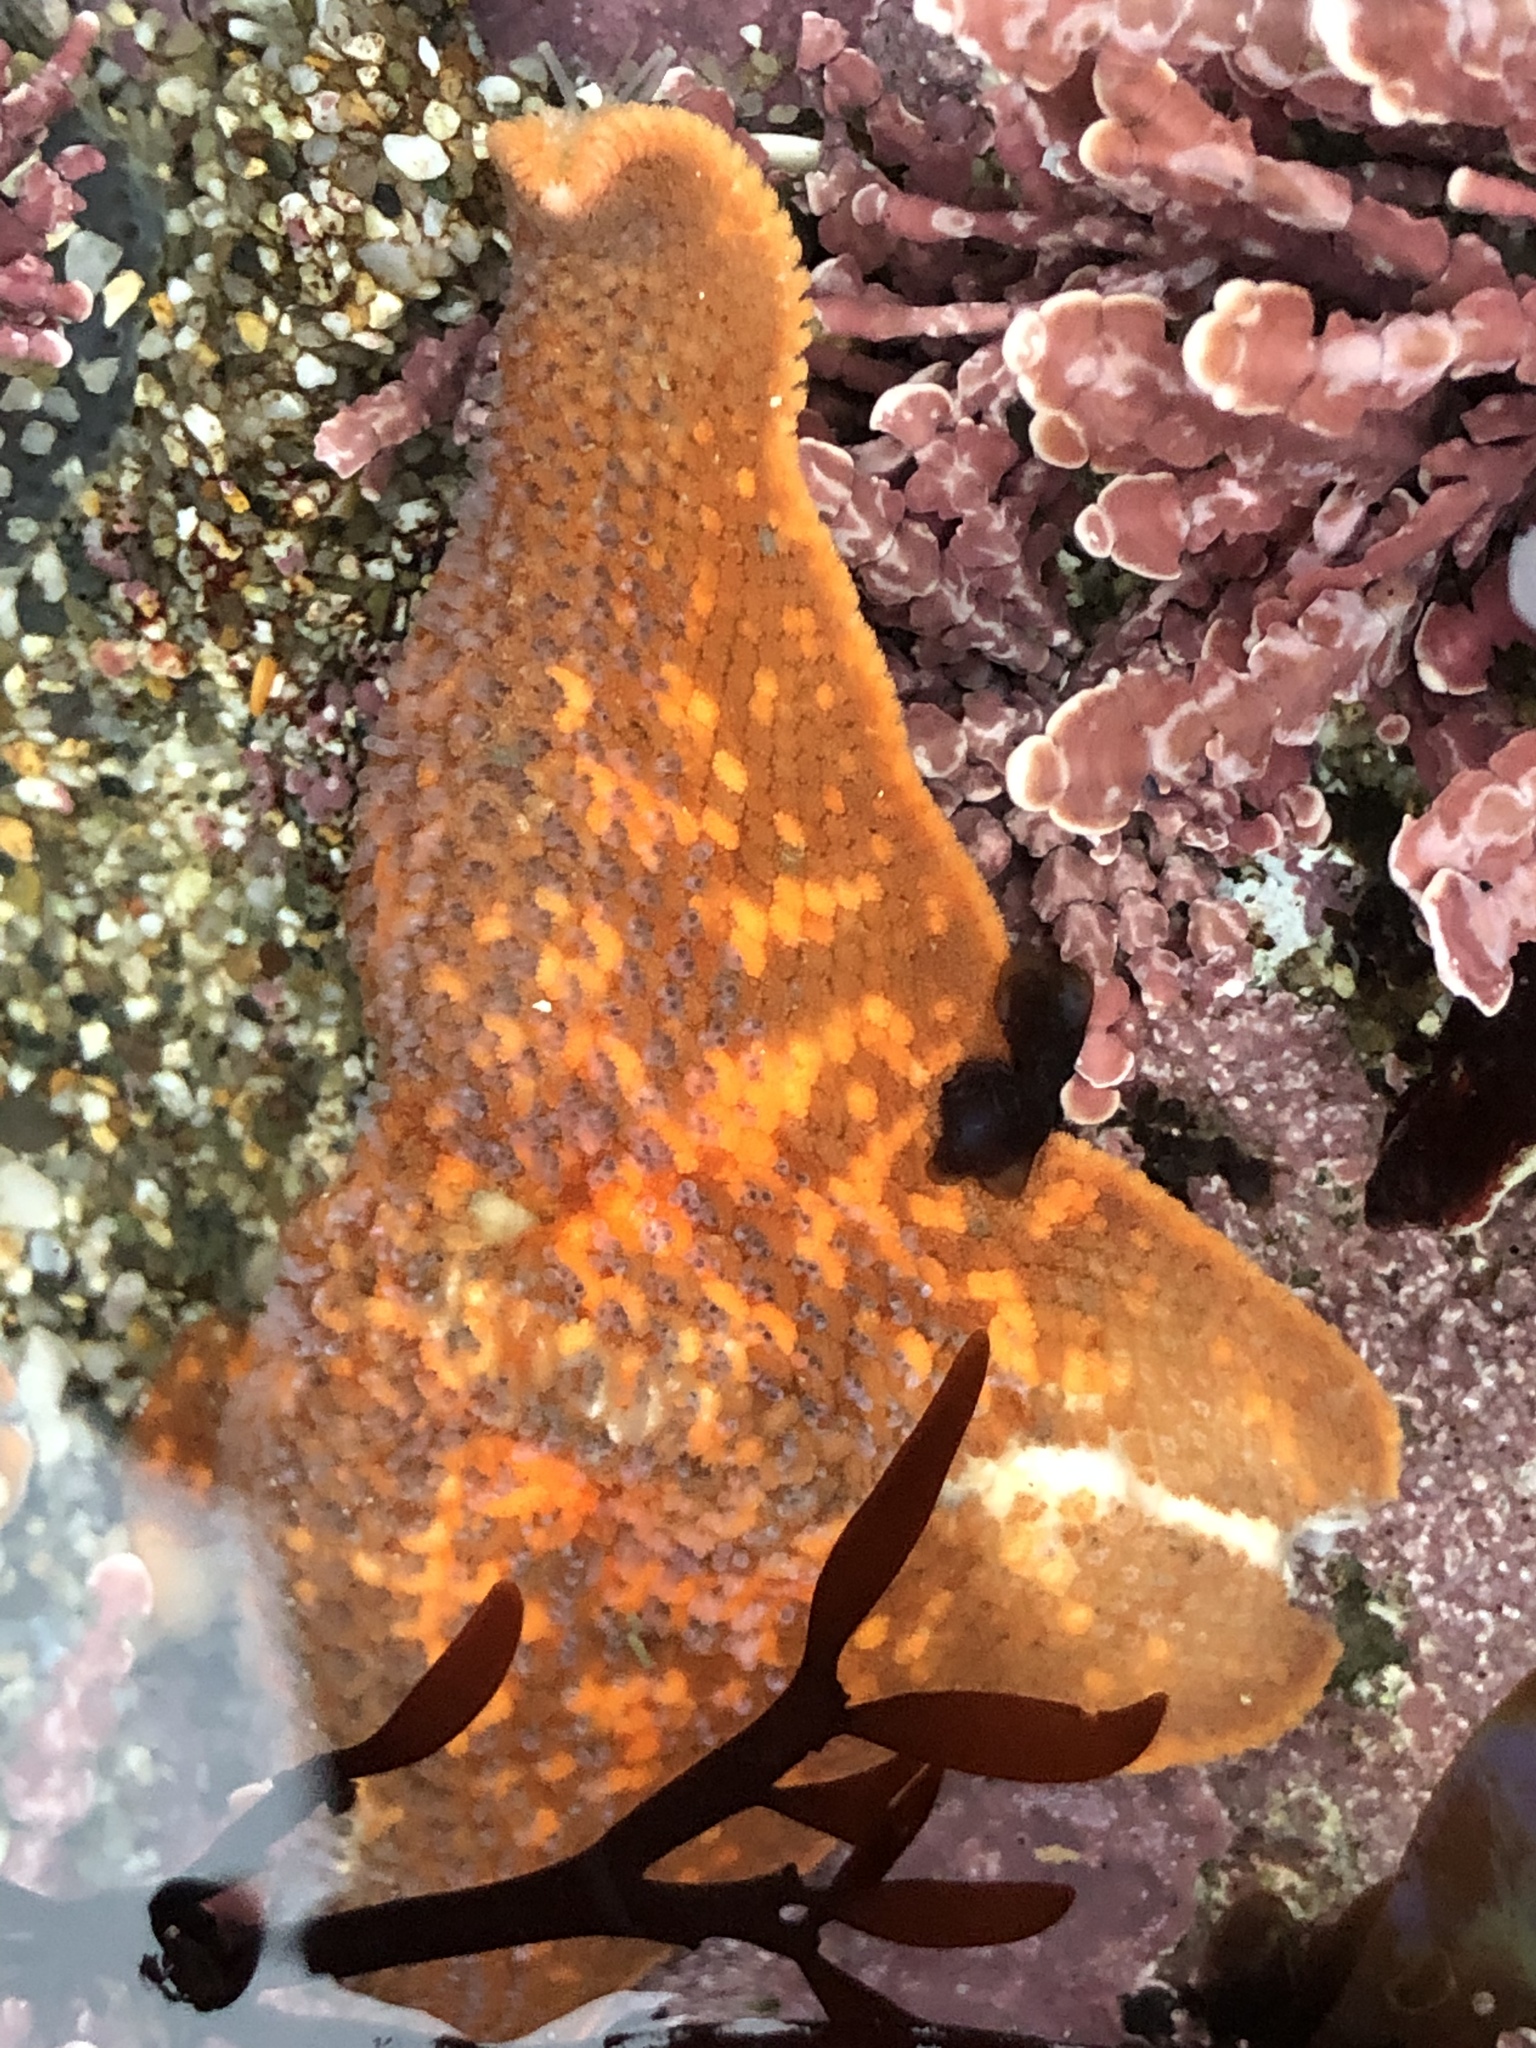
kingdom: Animalia
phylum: Echinodermata
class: Asteroidea
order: Valvatida
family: Asterinidae
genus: Patiria
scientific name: Patiria miniata
